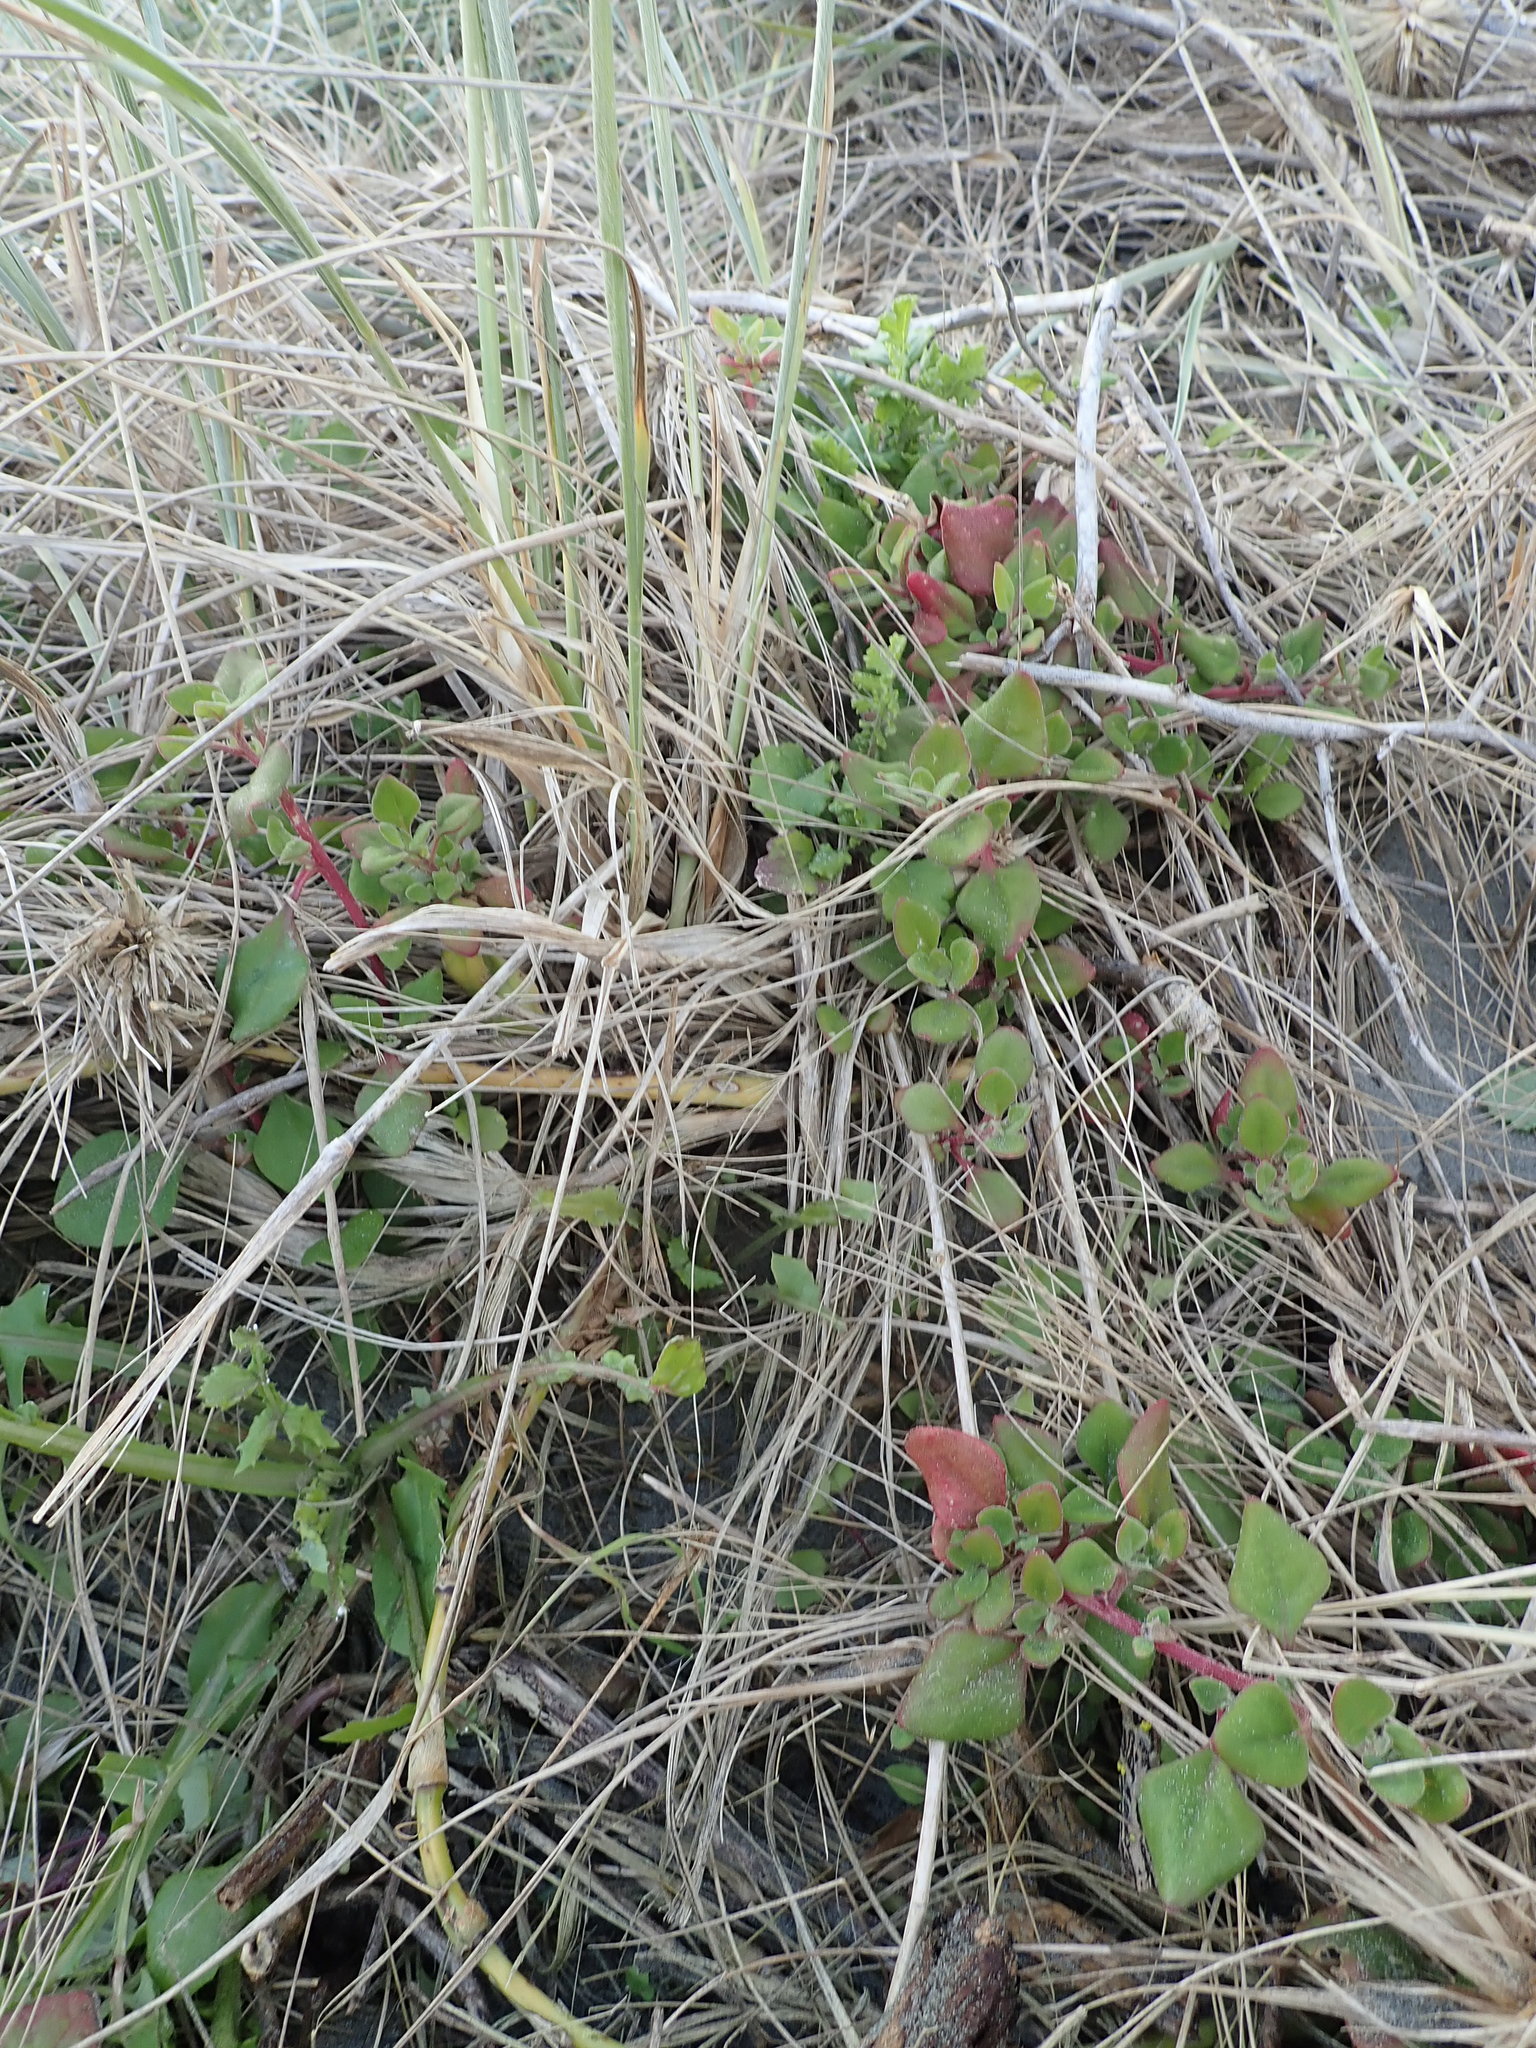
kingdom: Plantae
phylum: Tracheophyta
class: Magnoliopsida
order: Caryophyllales
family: Aizoaceae
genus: Tetragonia
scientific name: Tetragonia implexicoma
